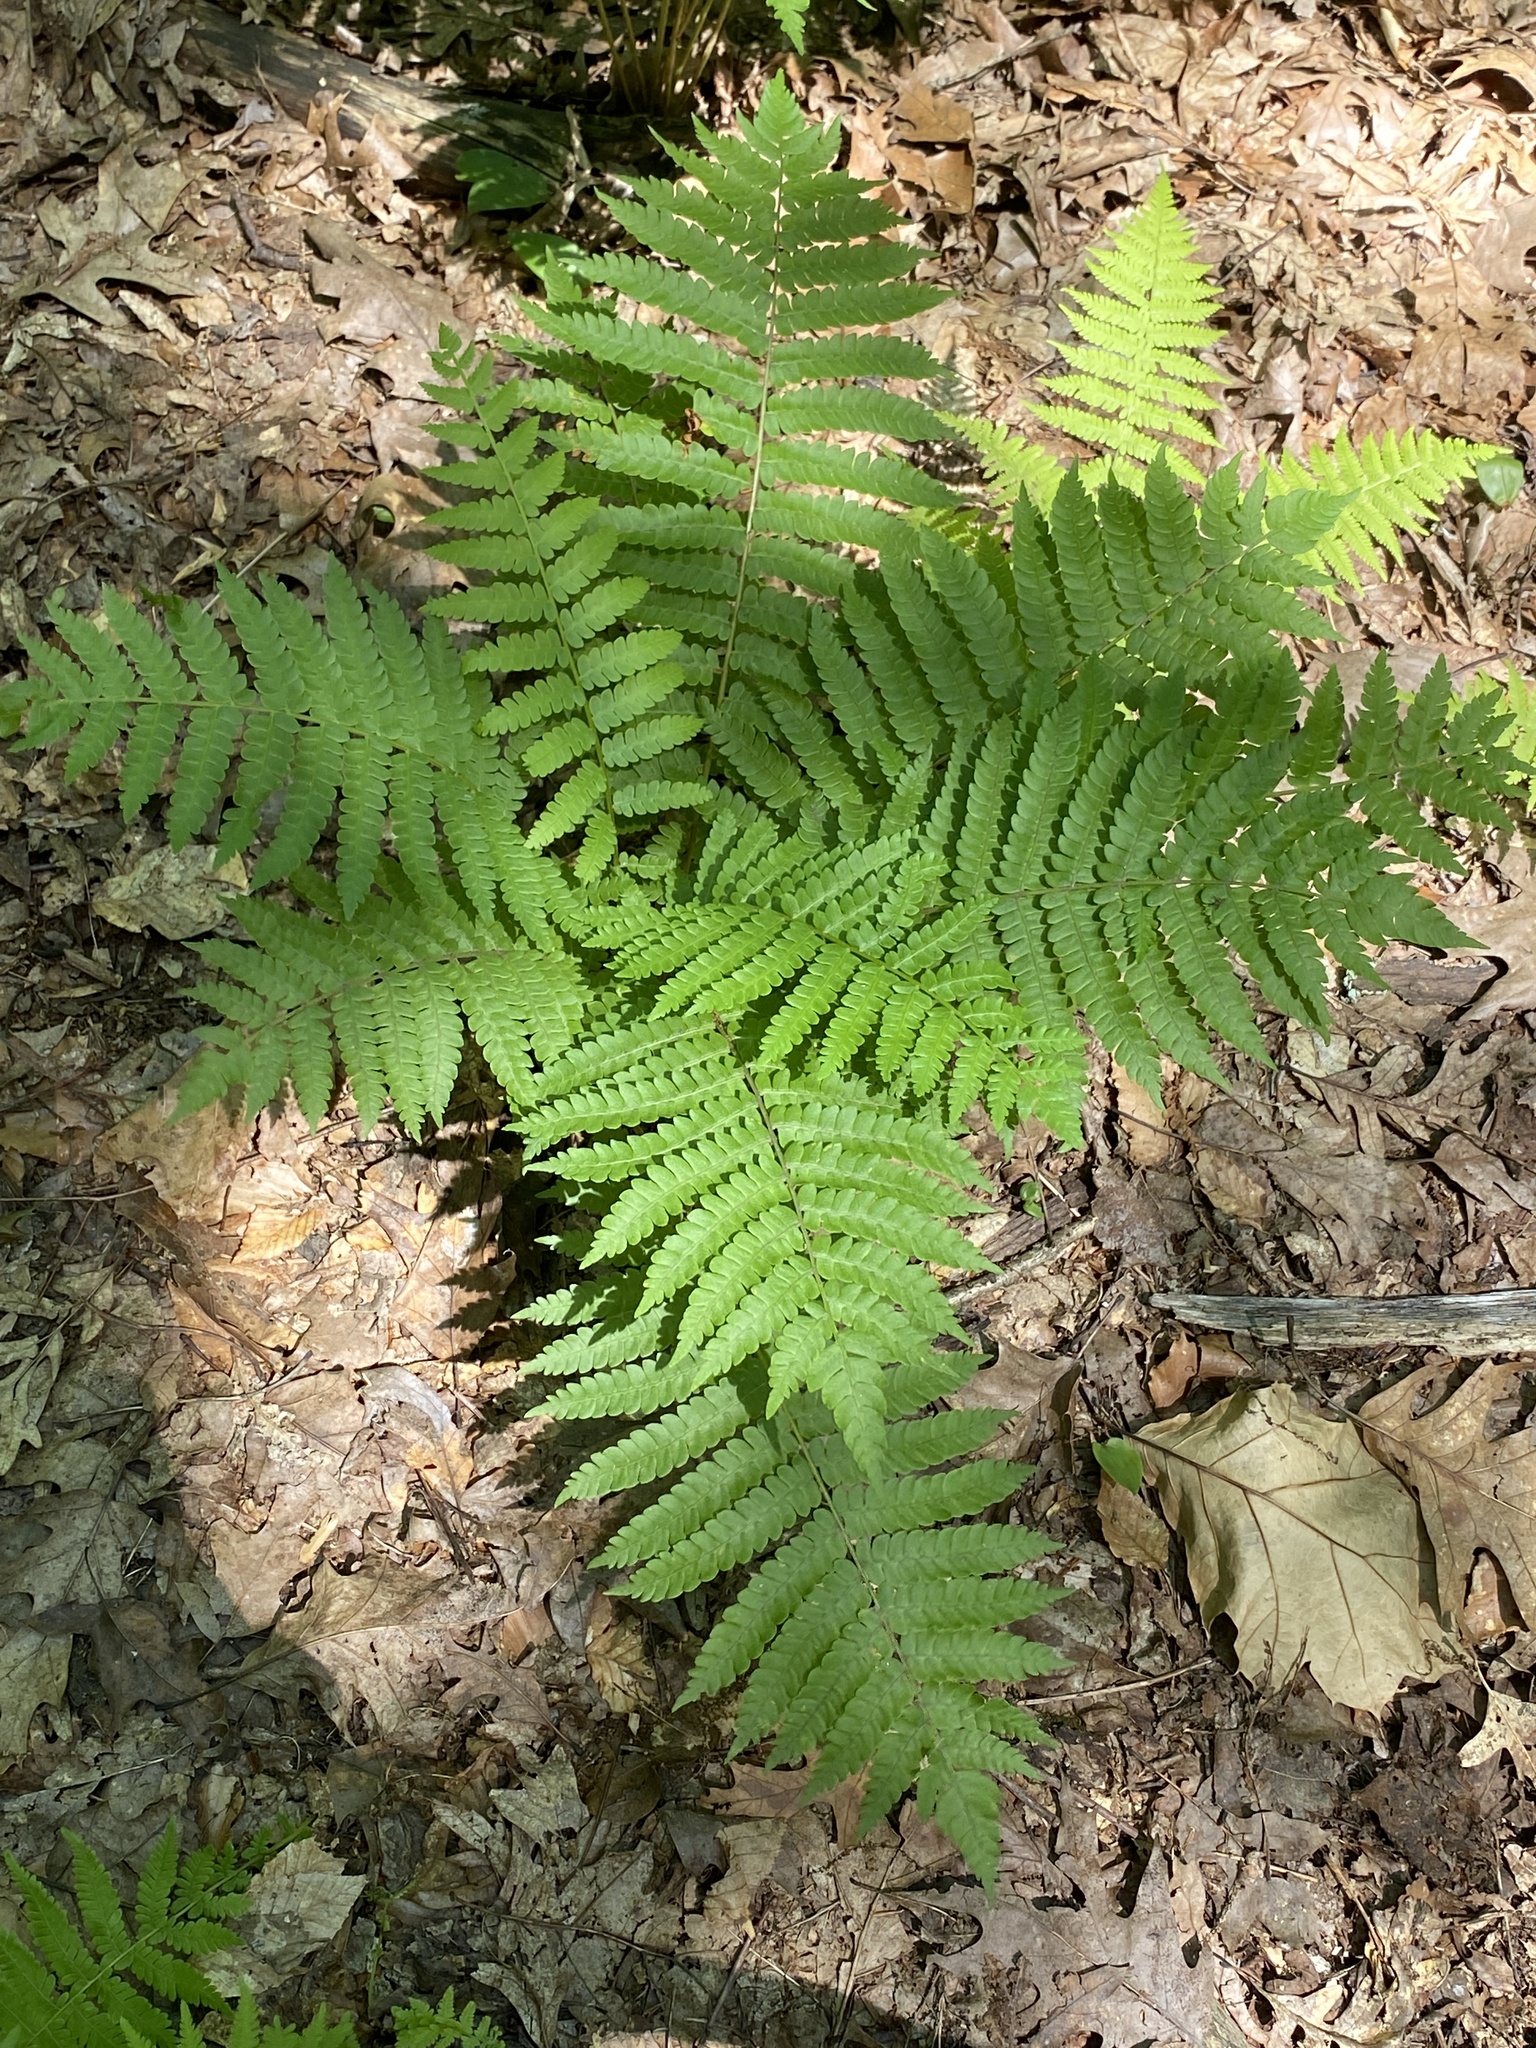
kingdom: Plantae
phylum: Tracheophyta
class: Polypodiopsida
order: Osmundales
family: Osmundaceae
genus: Osmundastrum
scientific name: Osmundastrum cinnamomeum
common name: Cinnamon fern
